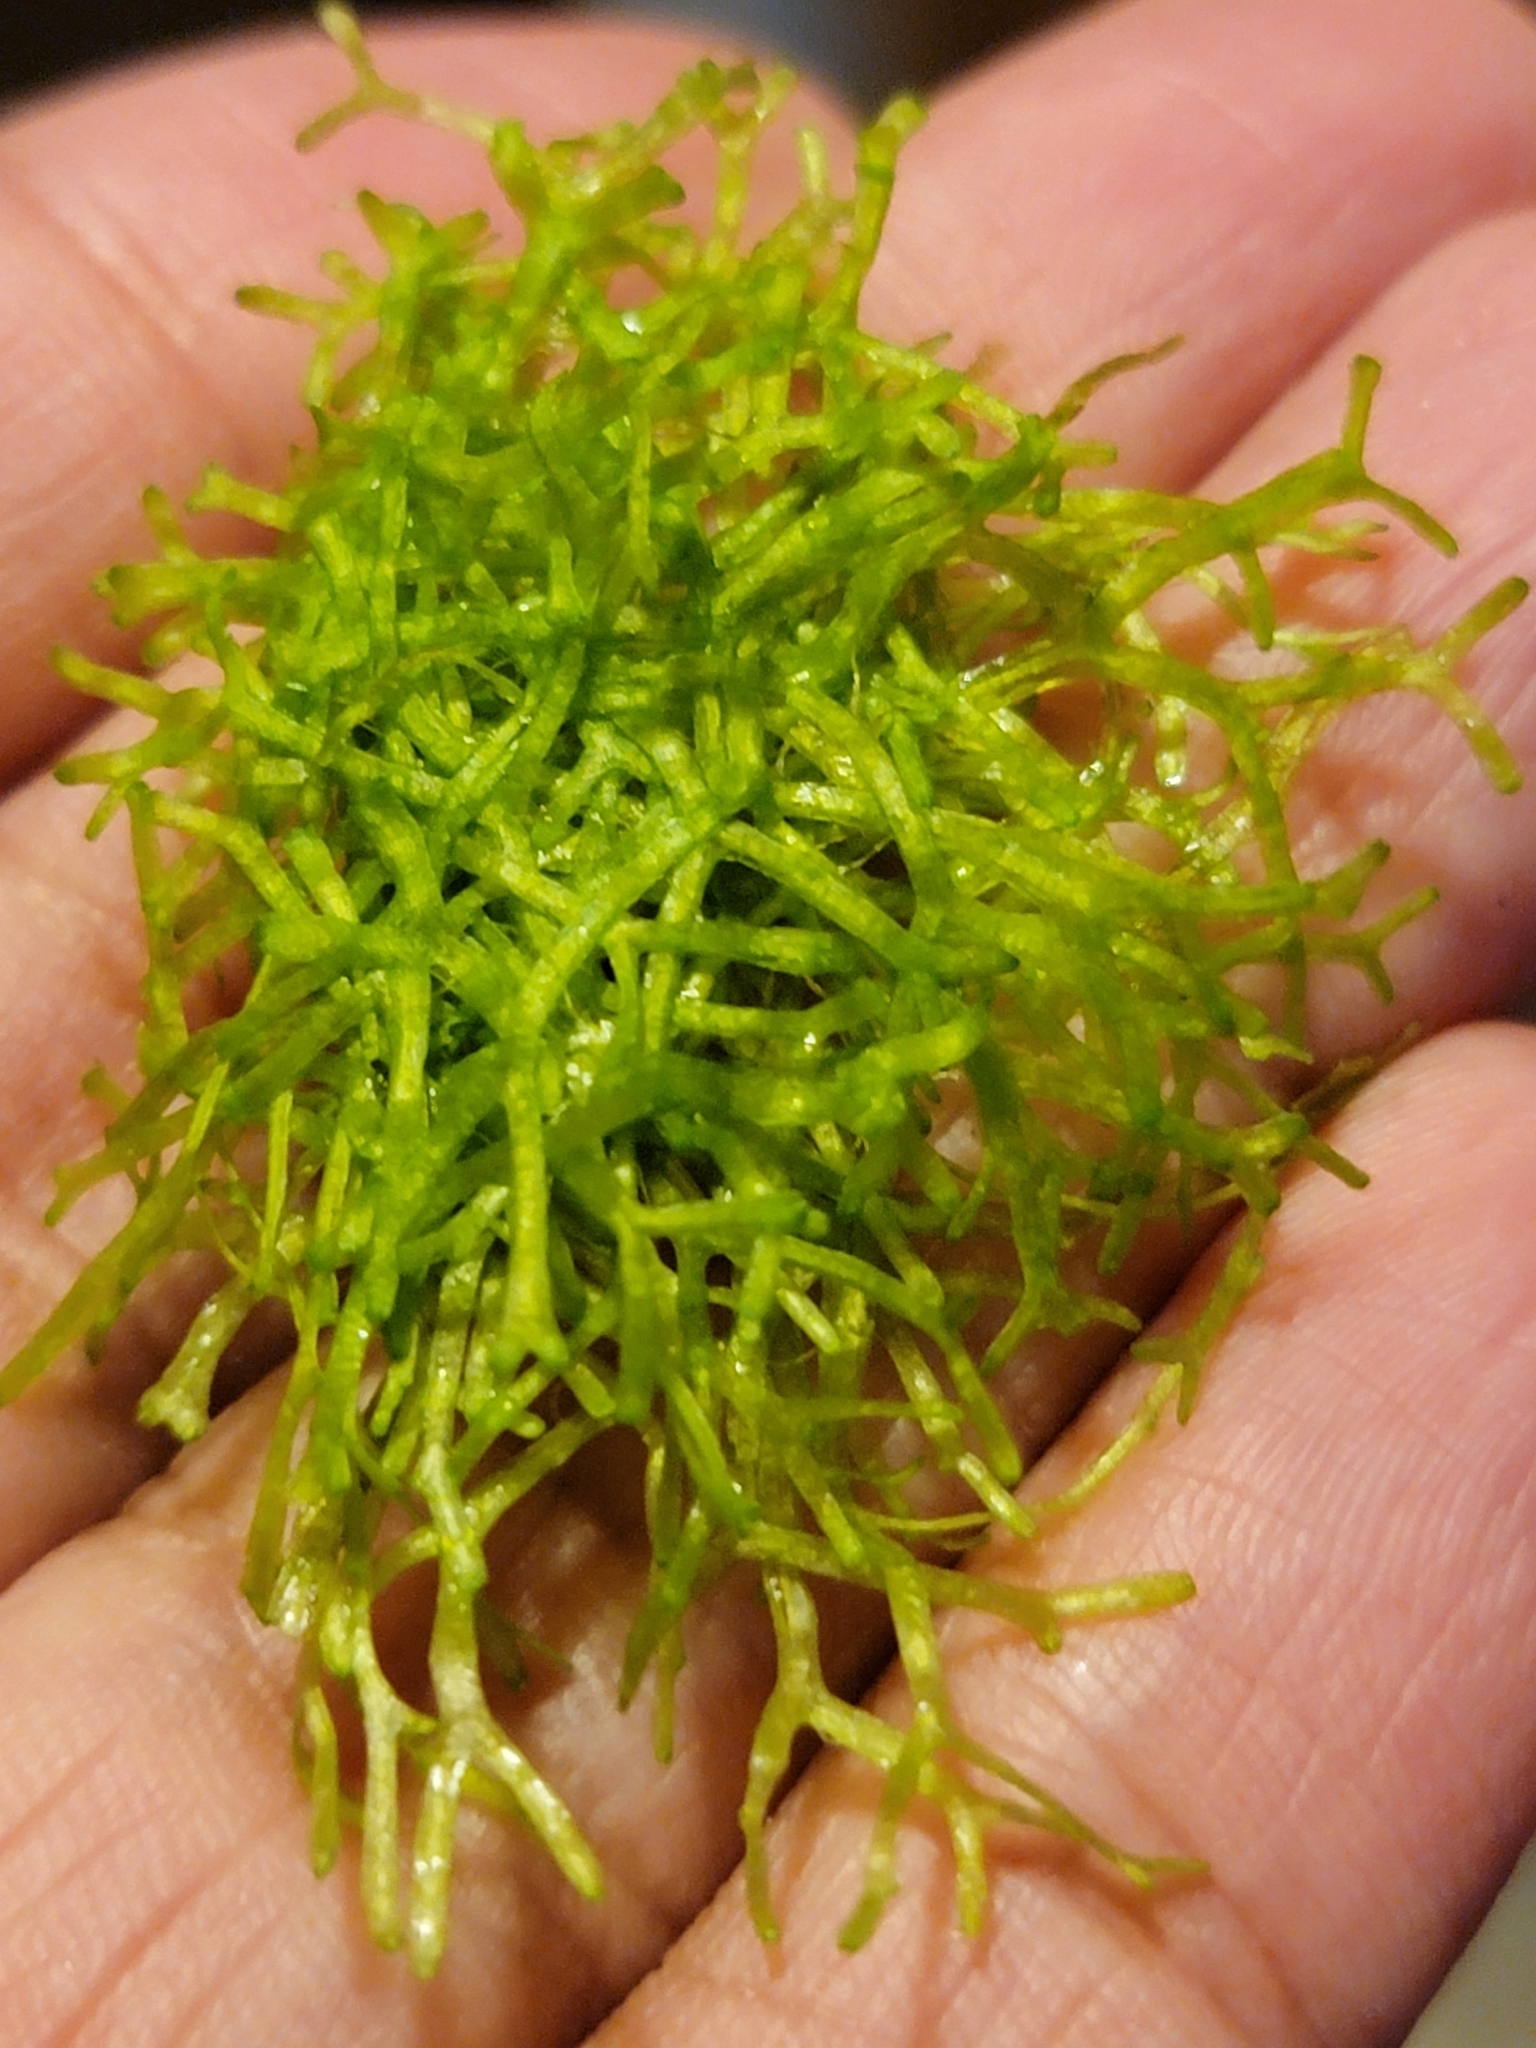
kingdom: Plantae
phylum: Marchantiophyta
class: Marchantiopsida
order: Marchantiales
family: Ricciaceae
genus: Riccia
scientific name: Riccia fluitans
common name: Floating crystalwort
